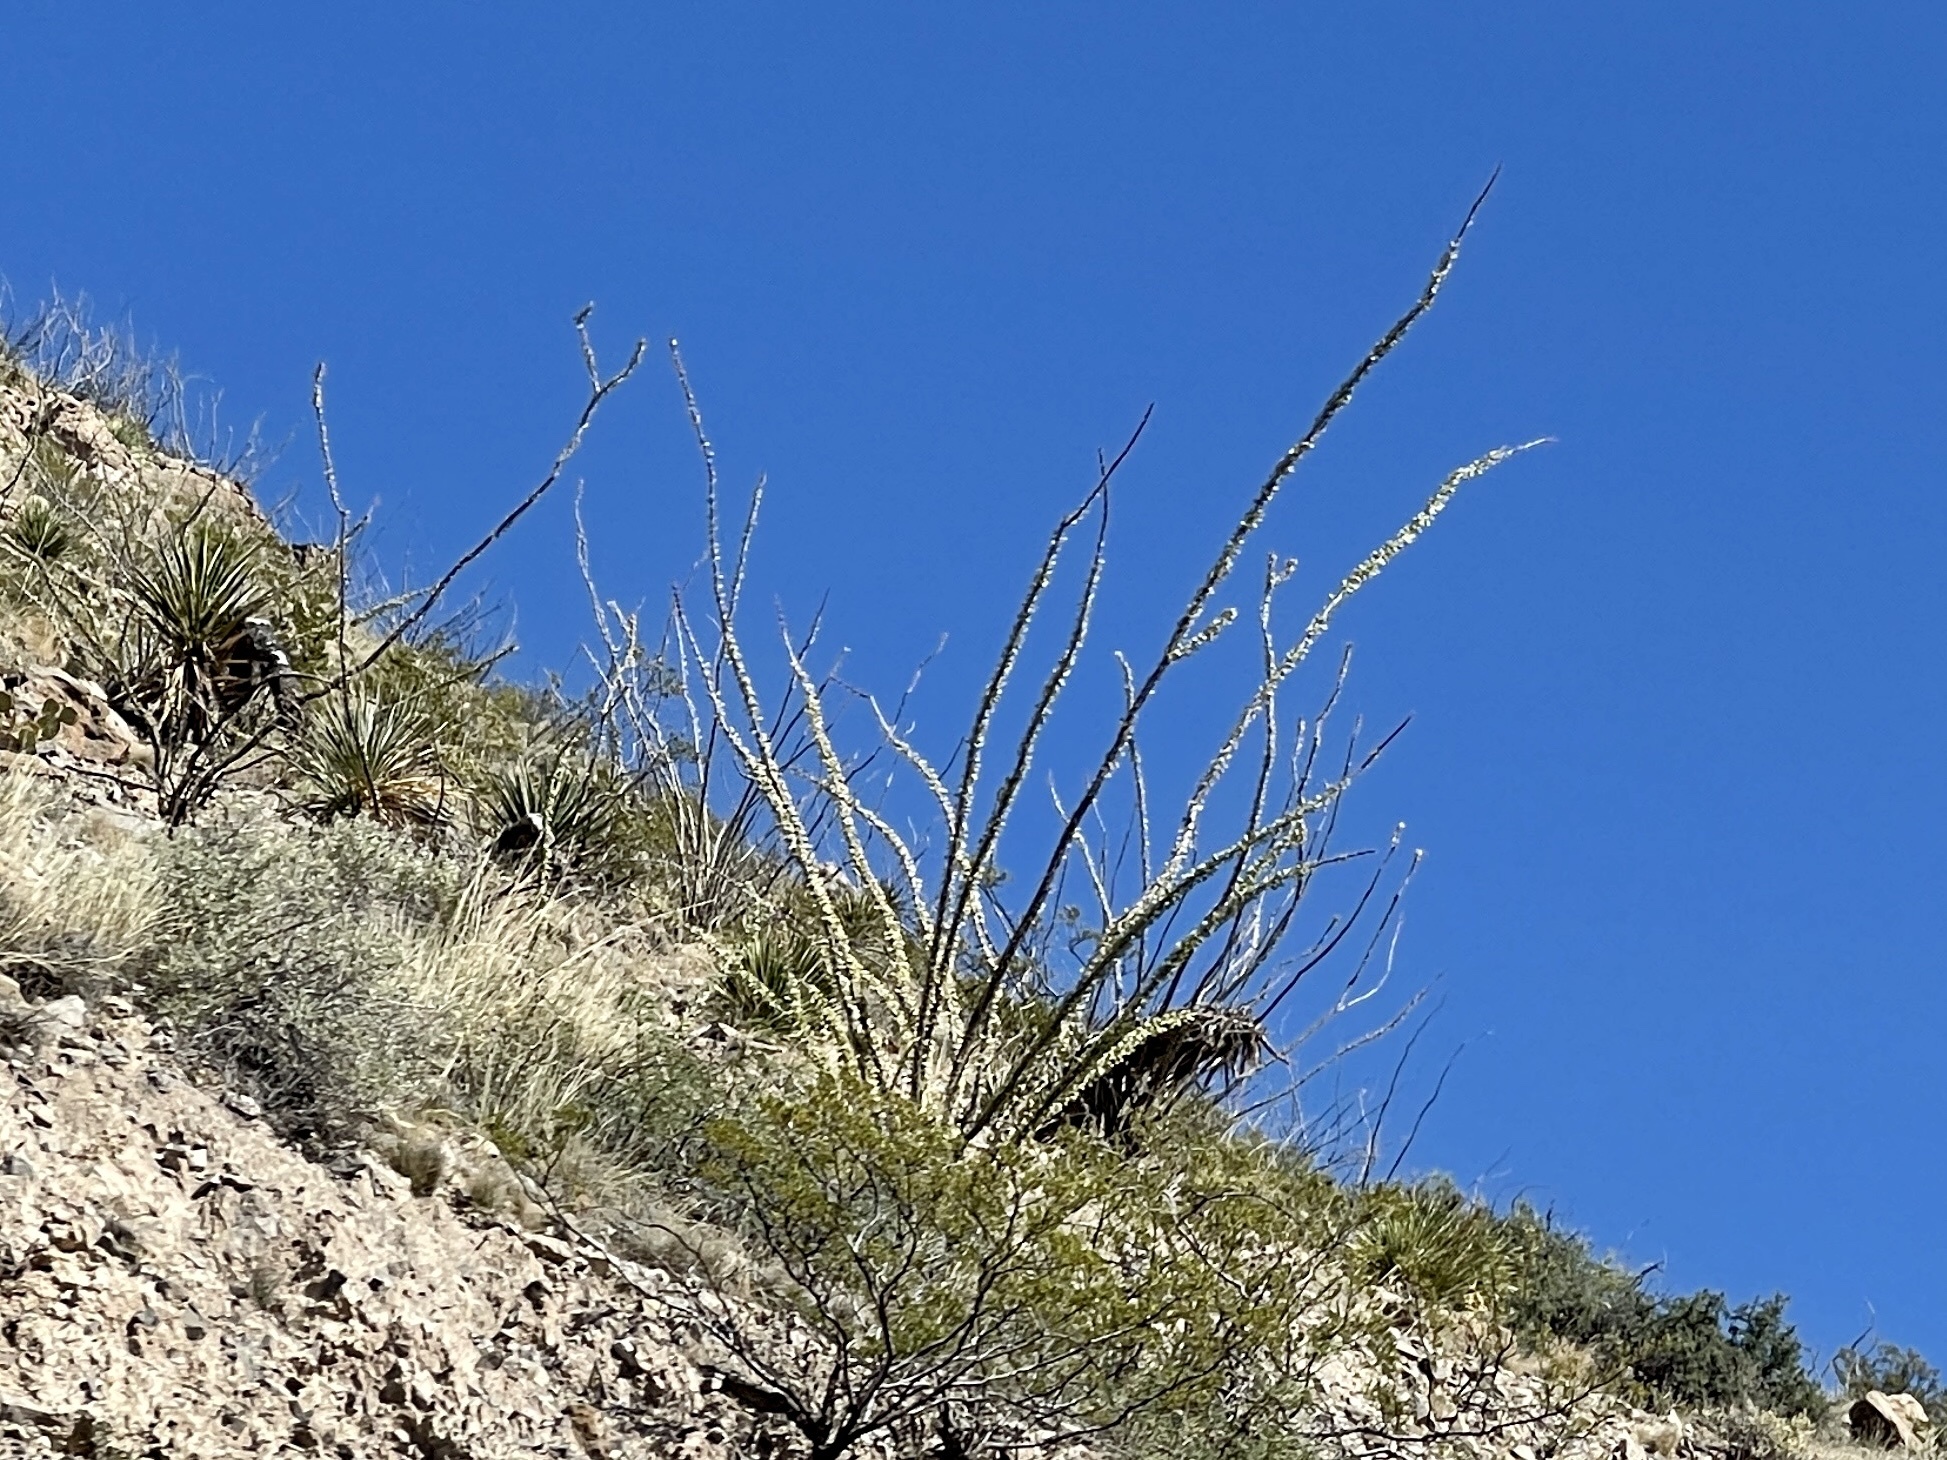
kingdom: Plantae
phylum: Tracheophyta
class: Magnoliopsida
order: Ericales
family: Fouquieriaceae
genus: Fouquieria
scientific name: Fouquieria splendens
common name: Vine-cactus
